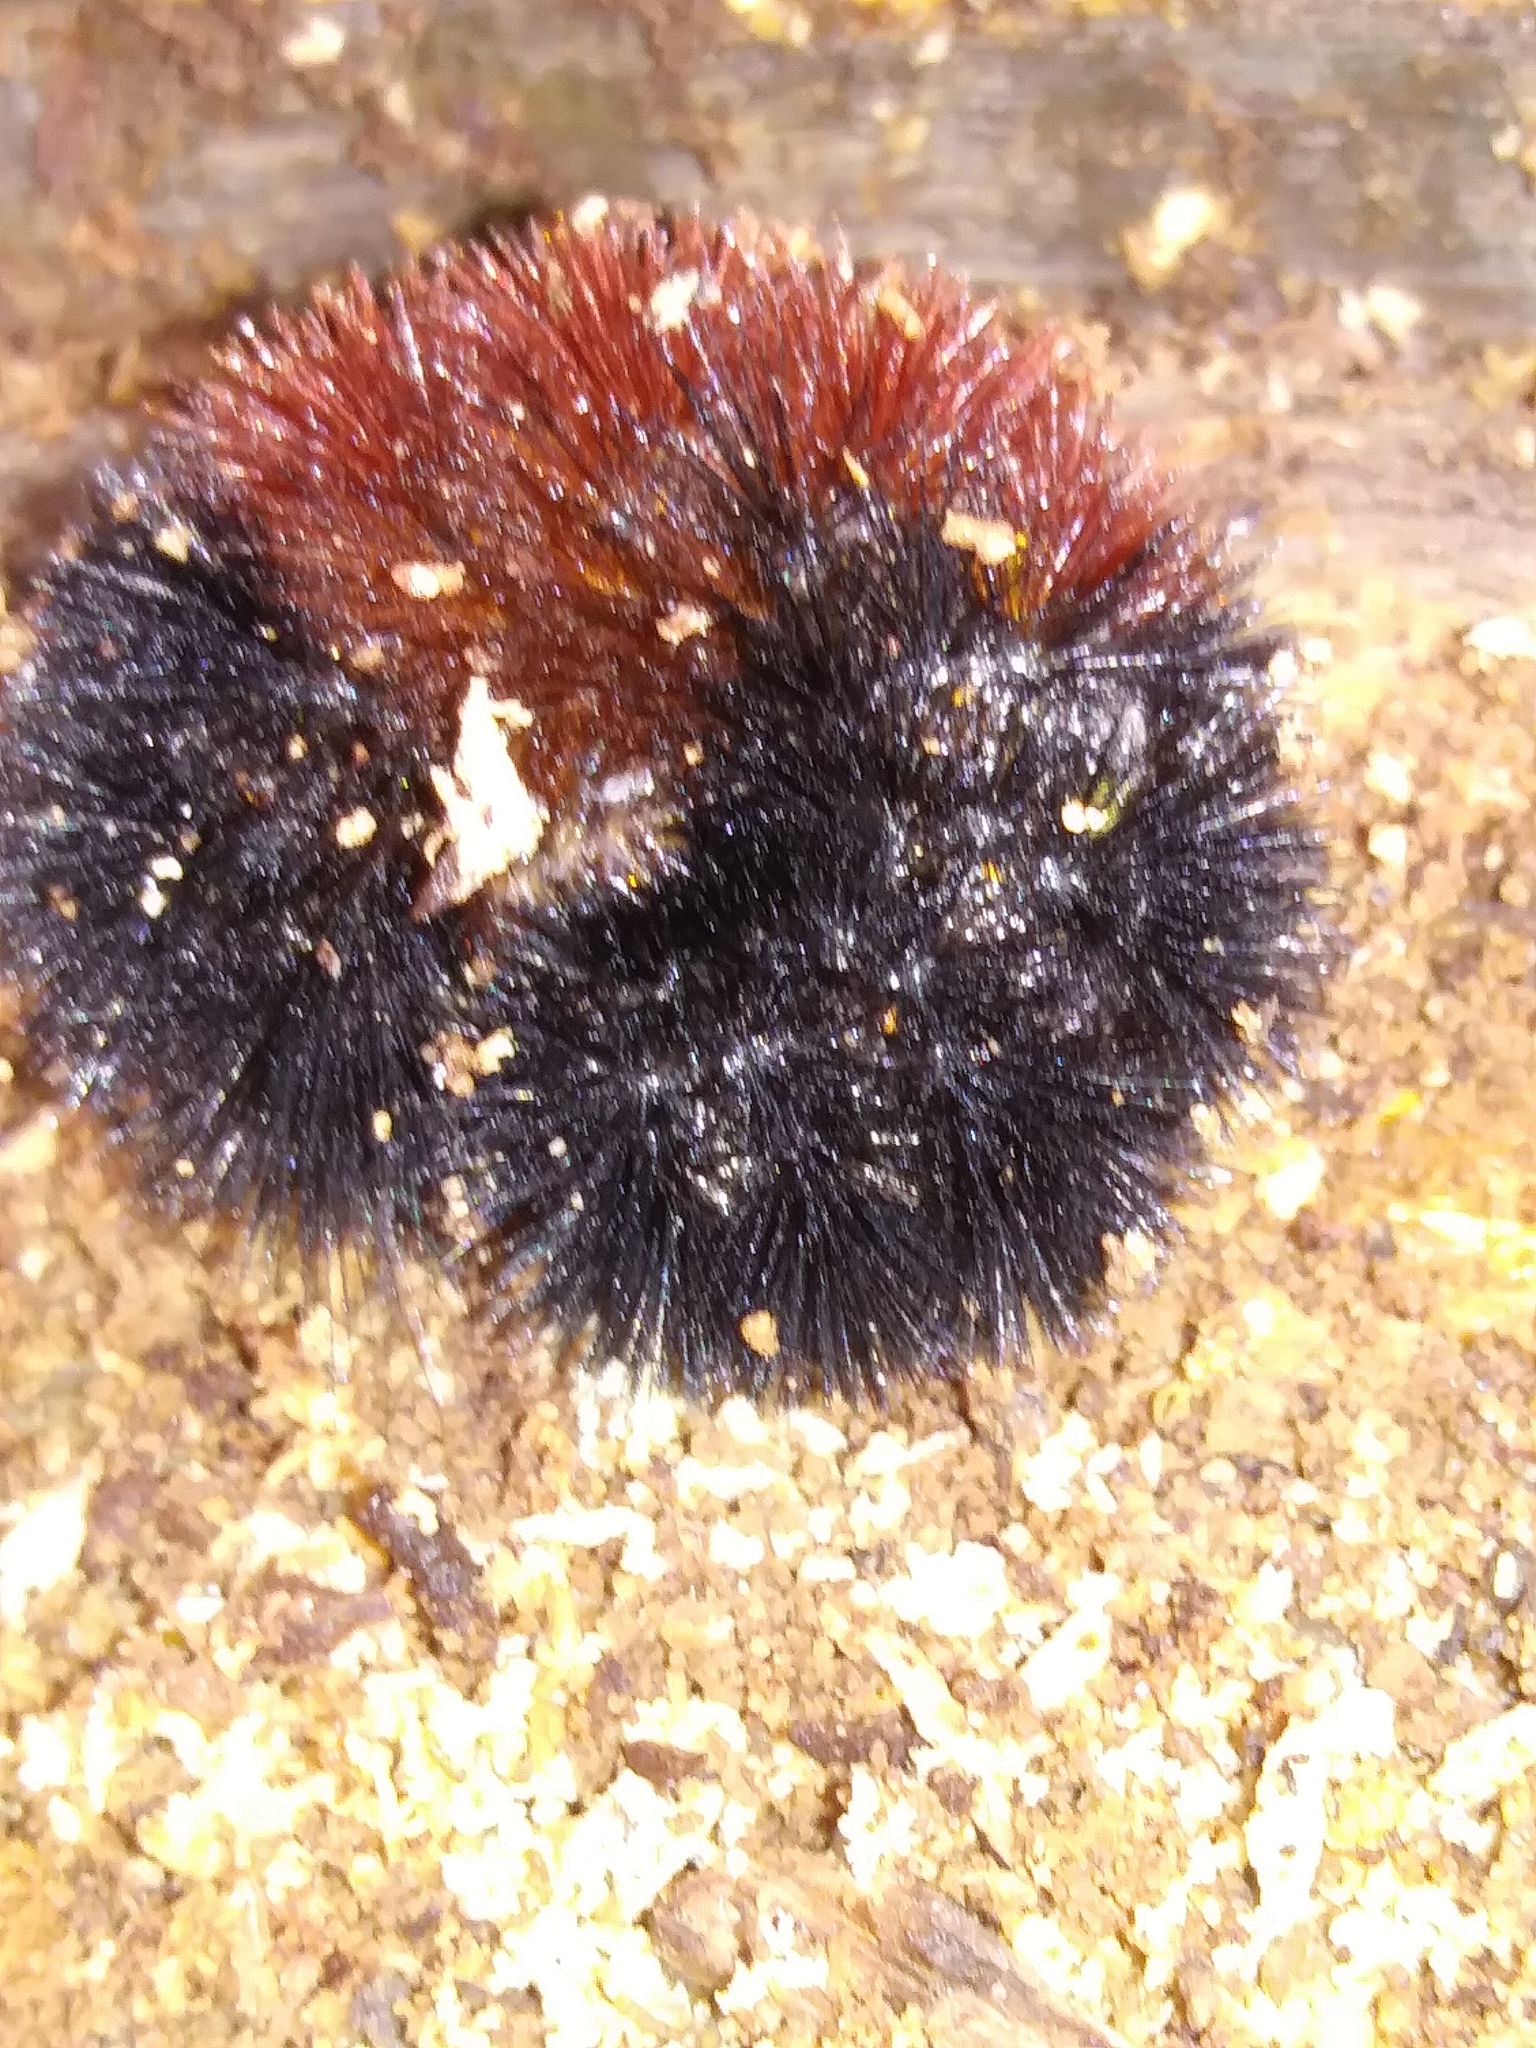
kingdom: Animalia
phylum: Arthropoda
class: Insecta
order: Lepidoptera
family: Erebidae
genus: Pyrrharctia
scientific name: Pyrrharctia isabella
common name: Isabella tiger moth
